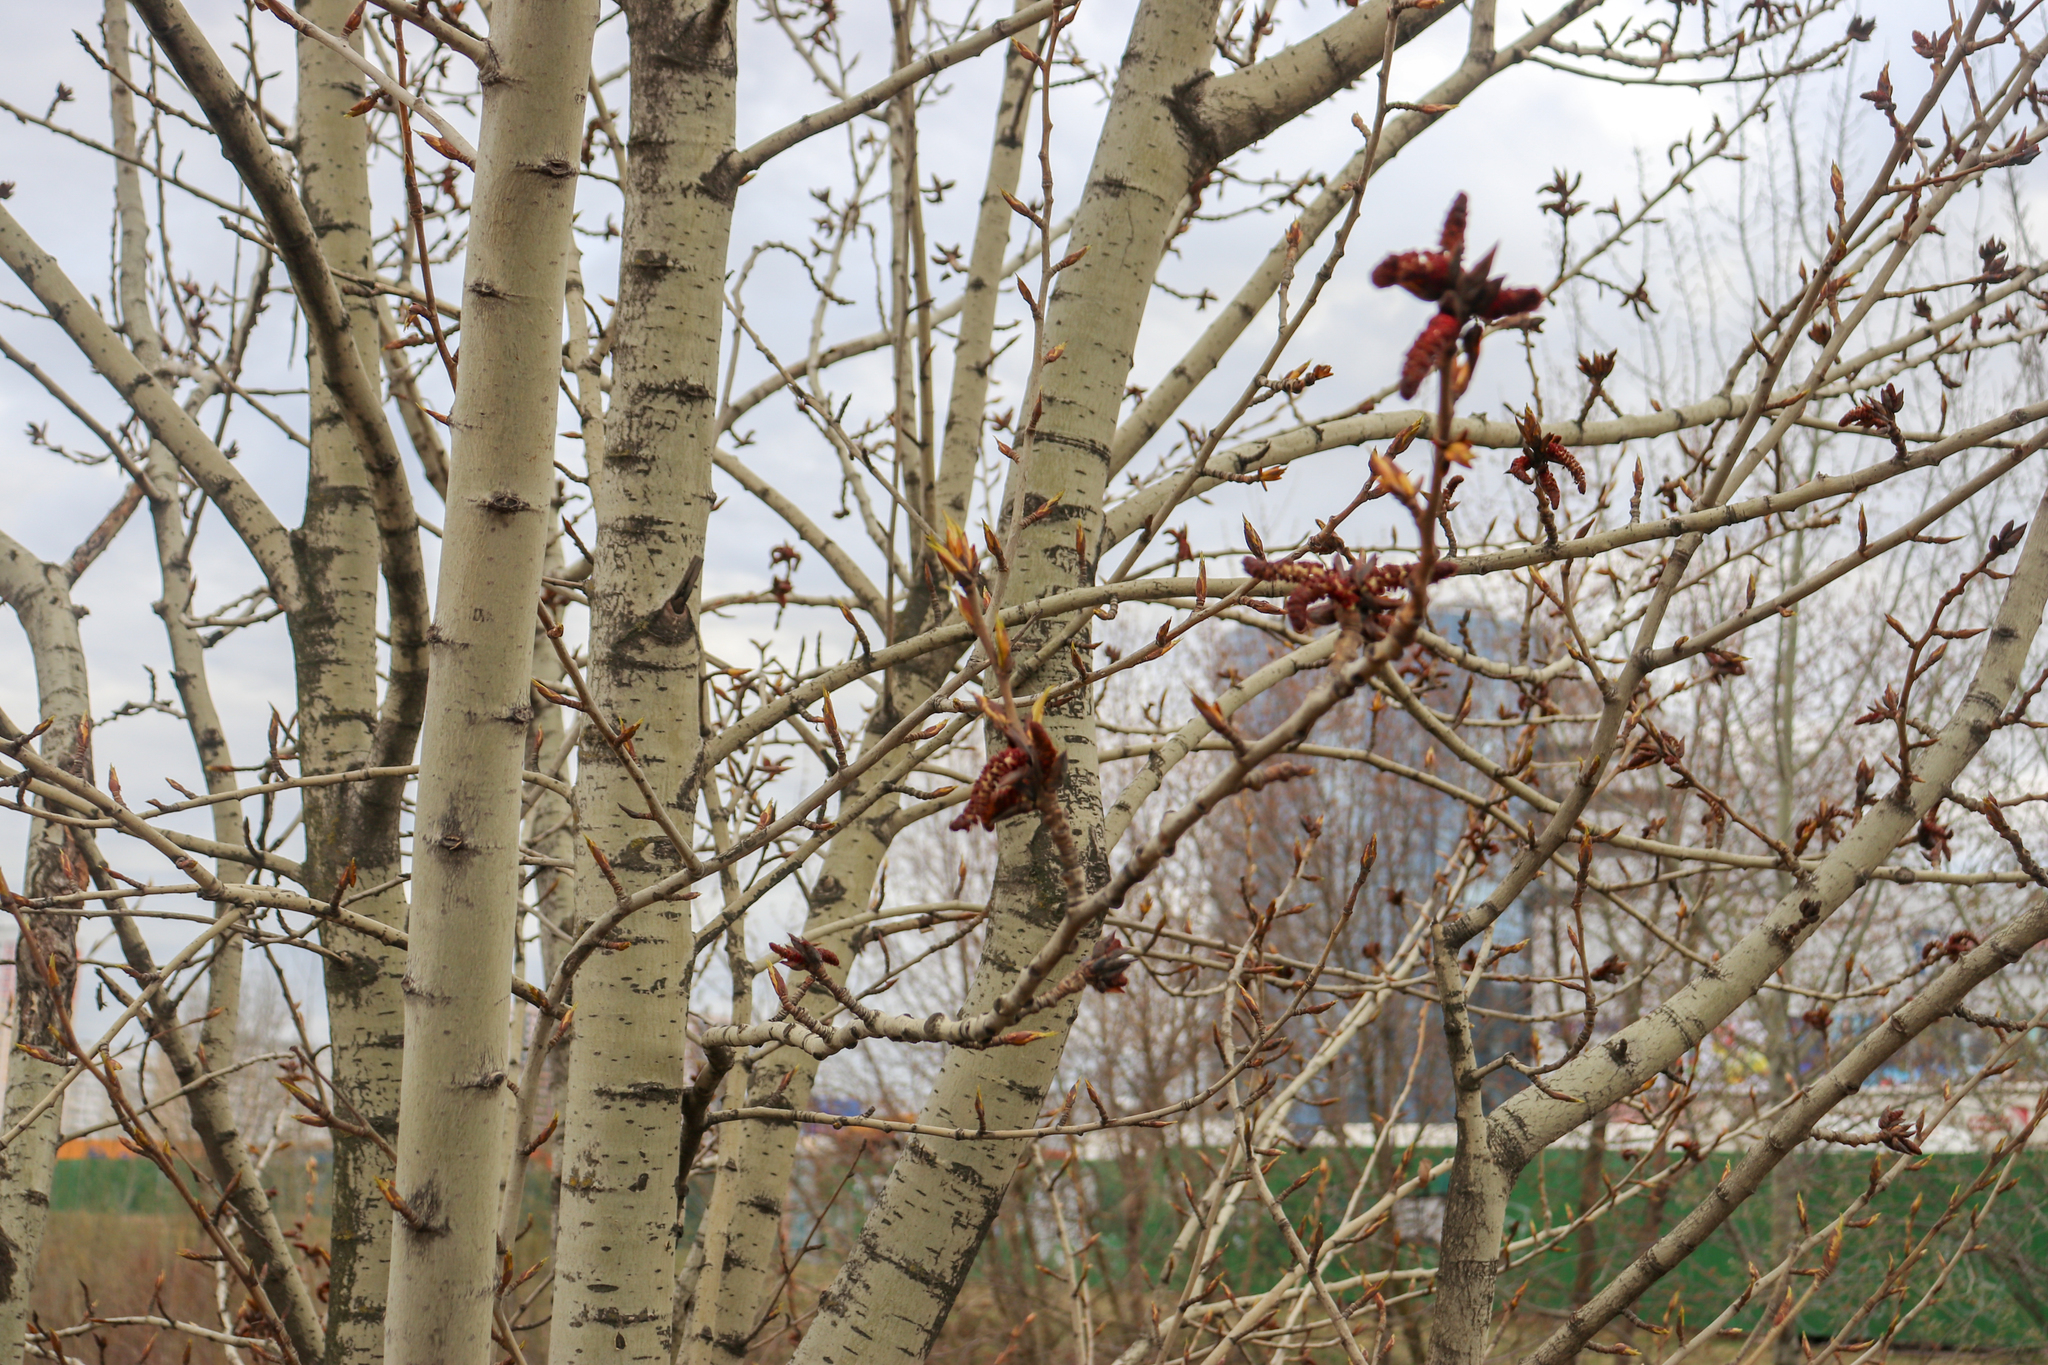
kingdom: Plantae
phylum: Tracheophyta
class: Magnoliopsida
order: Malpighiales
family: Salicaceae
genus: Populus
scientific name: Populus tremula
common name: European aspen
